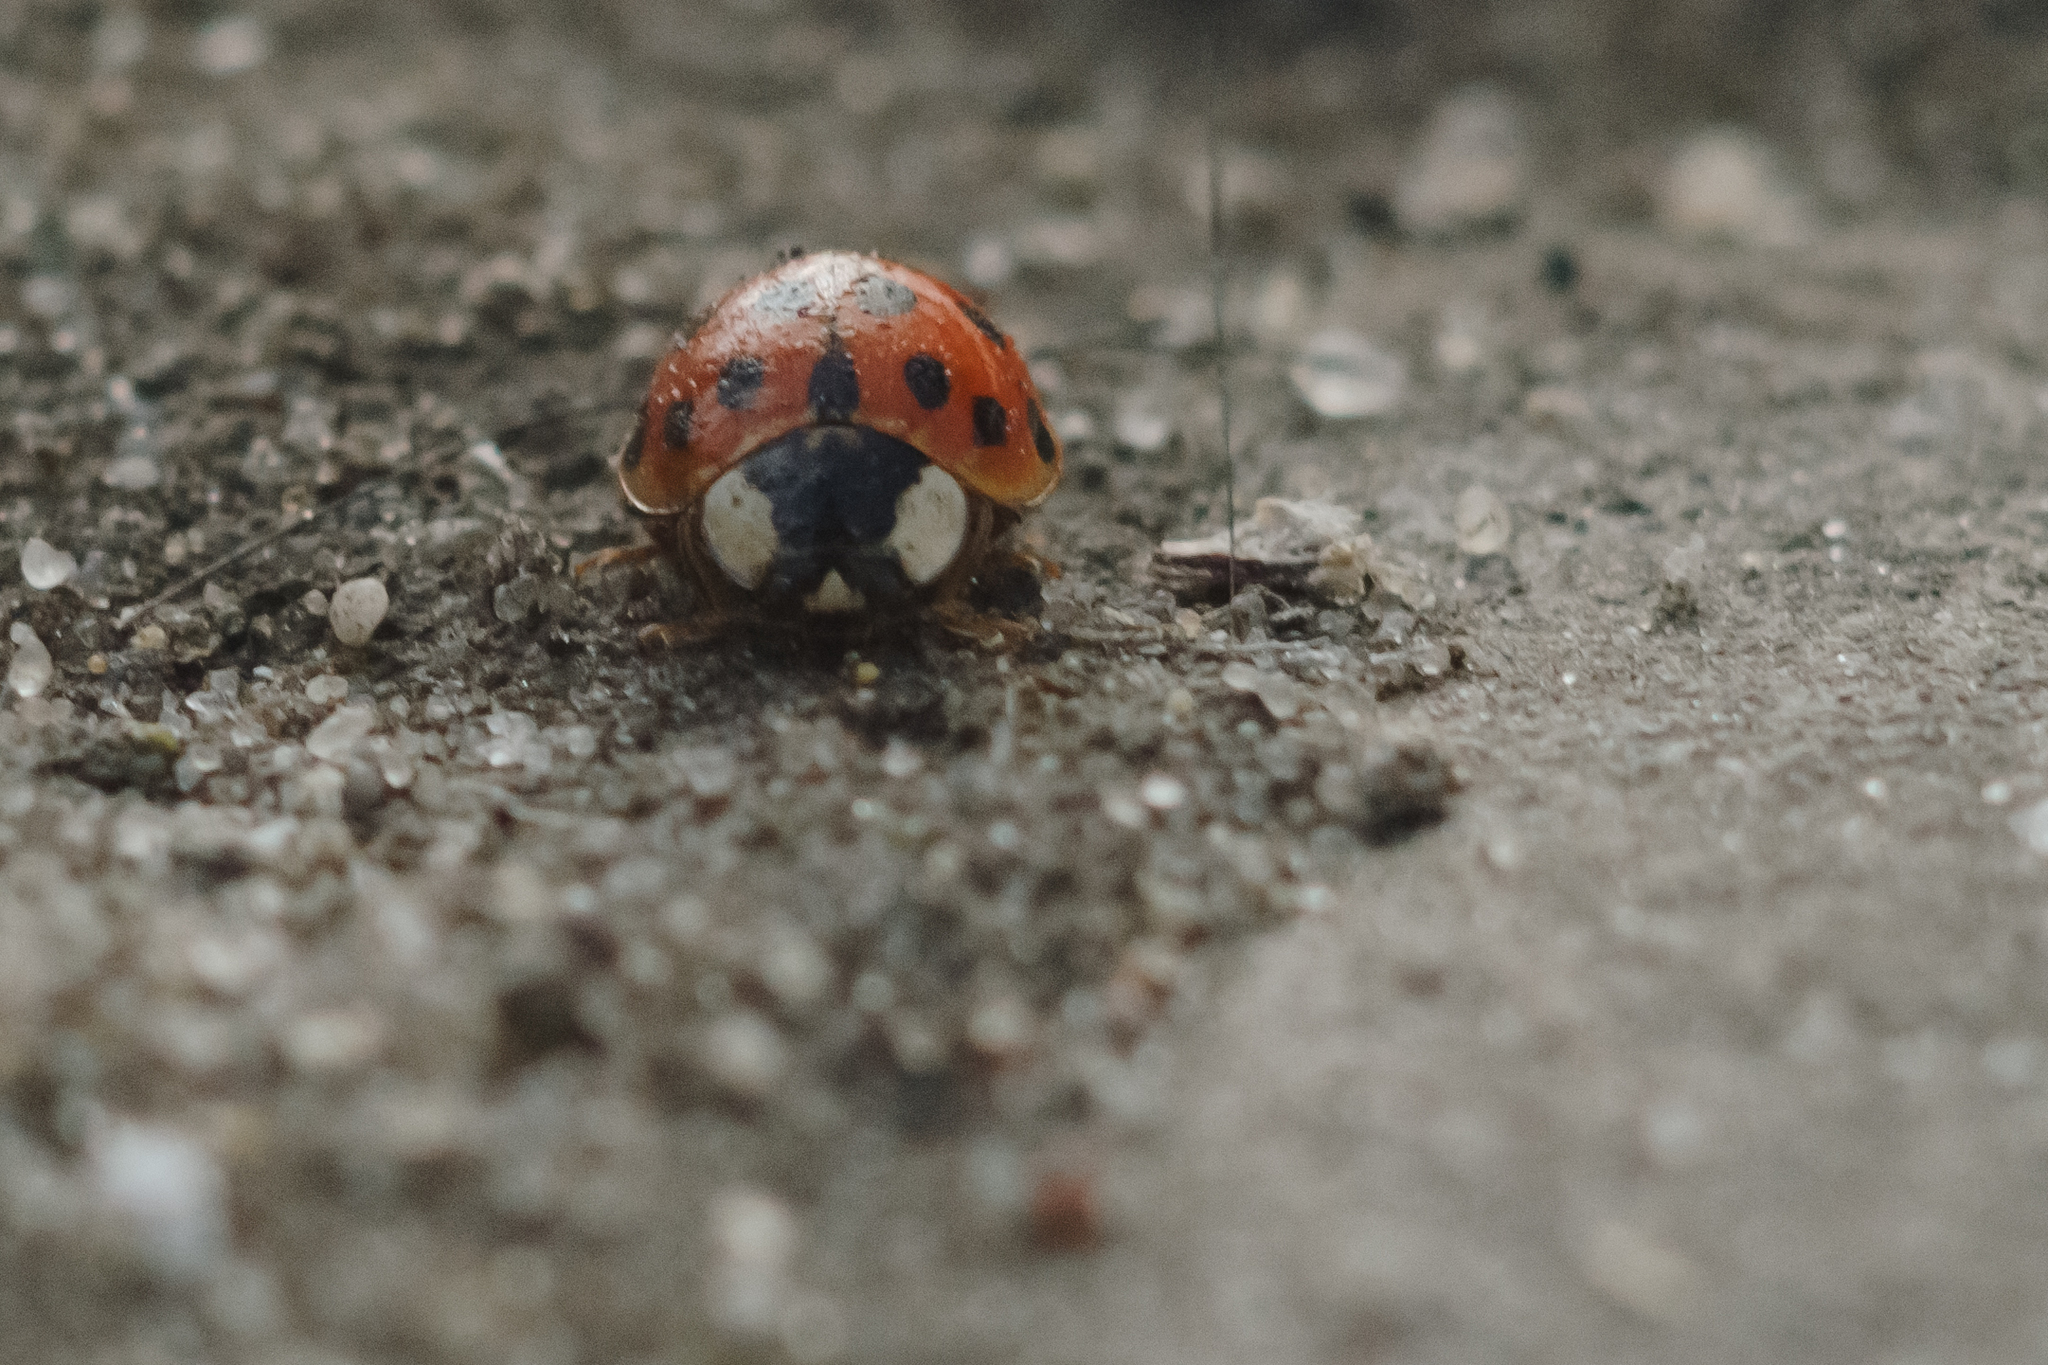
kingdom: Animalia
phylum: Arthropoda
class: Insecta
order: Coleoptera
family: Coccinellidae
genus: Harmonia
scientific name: Harmonia axyridis
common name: Harlequin ladybird
